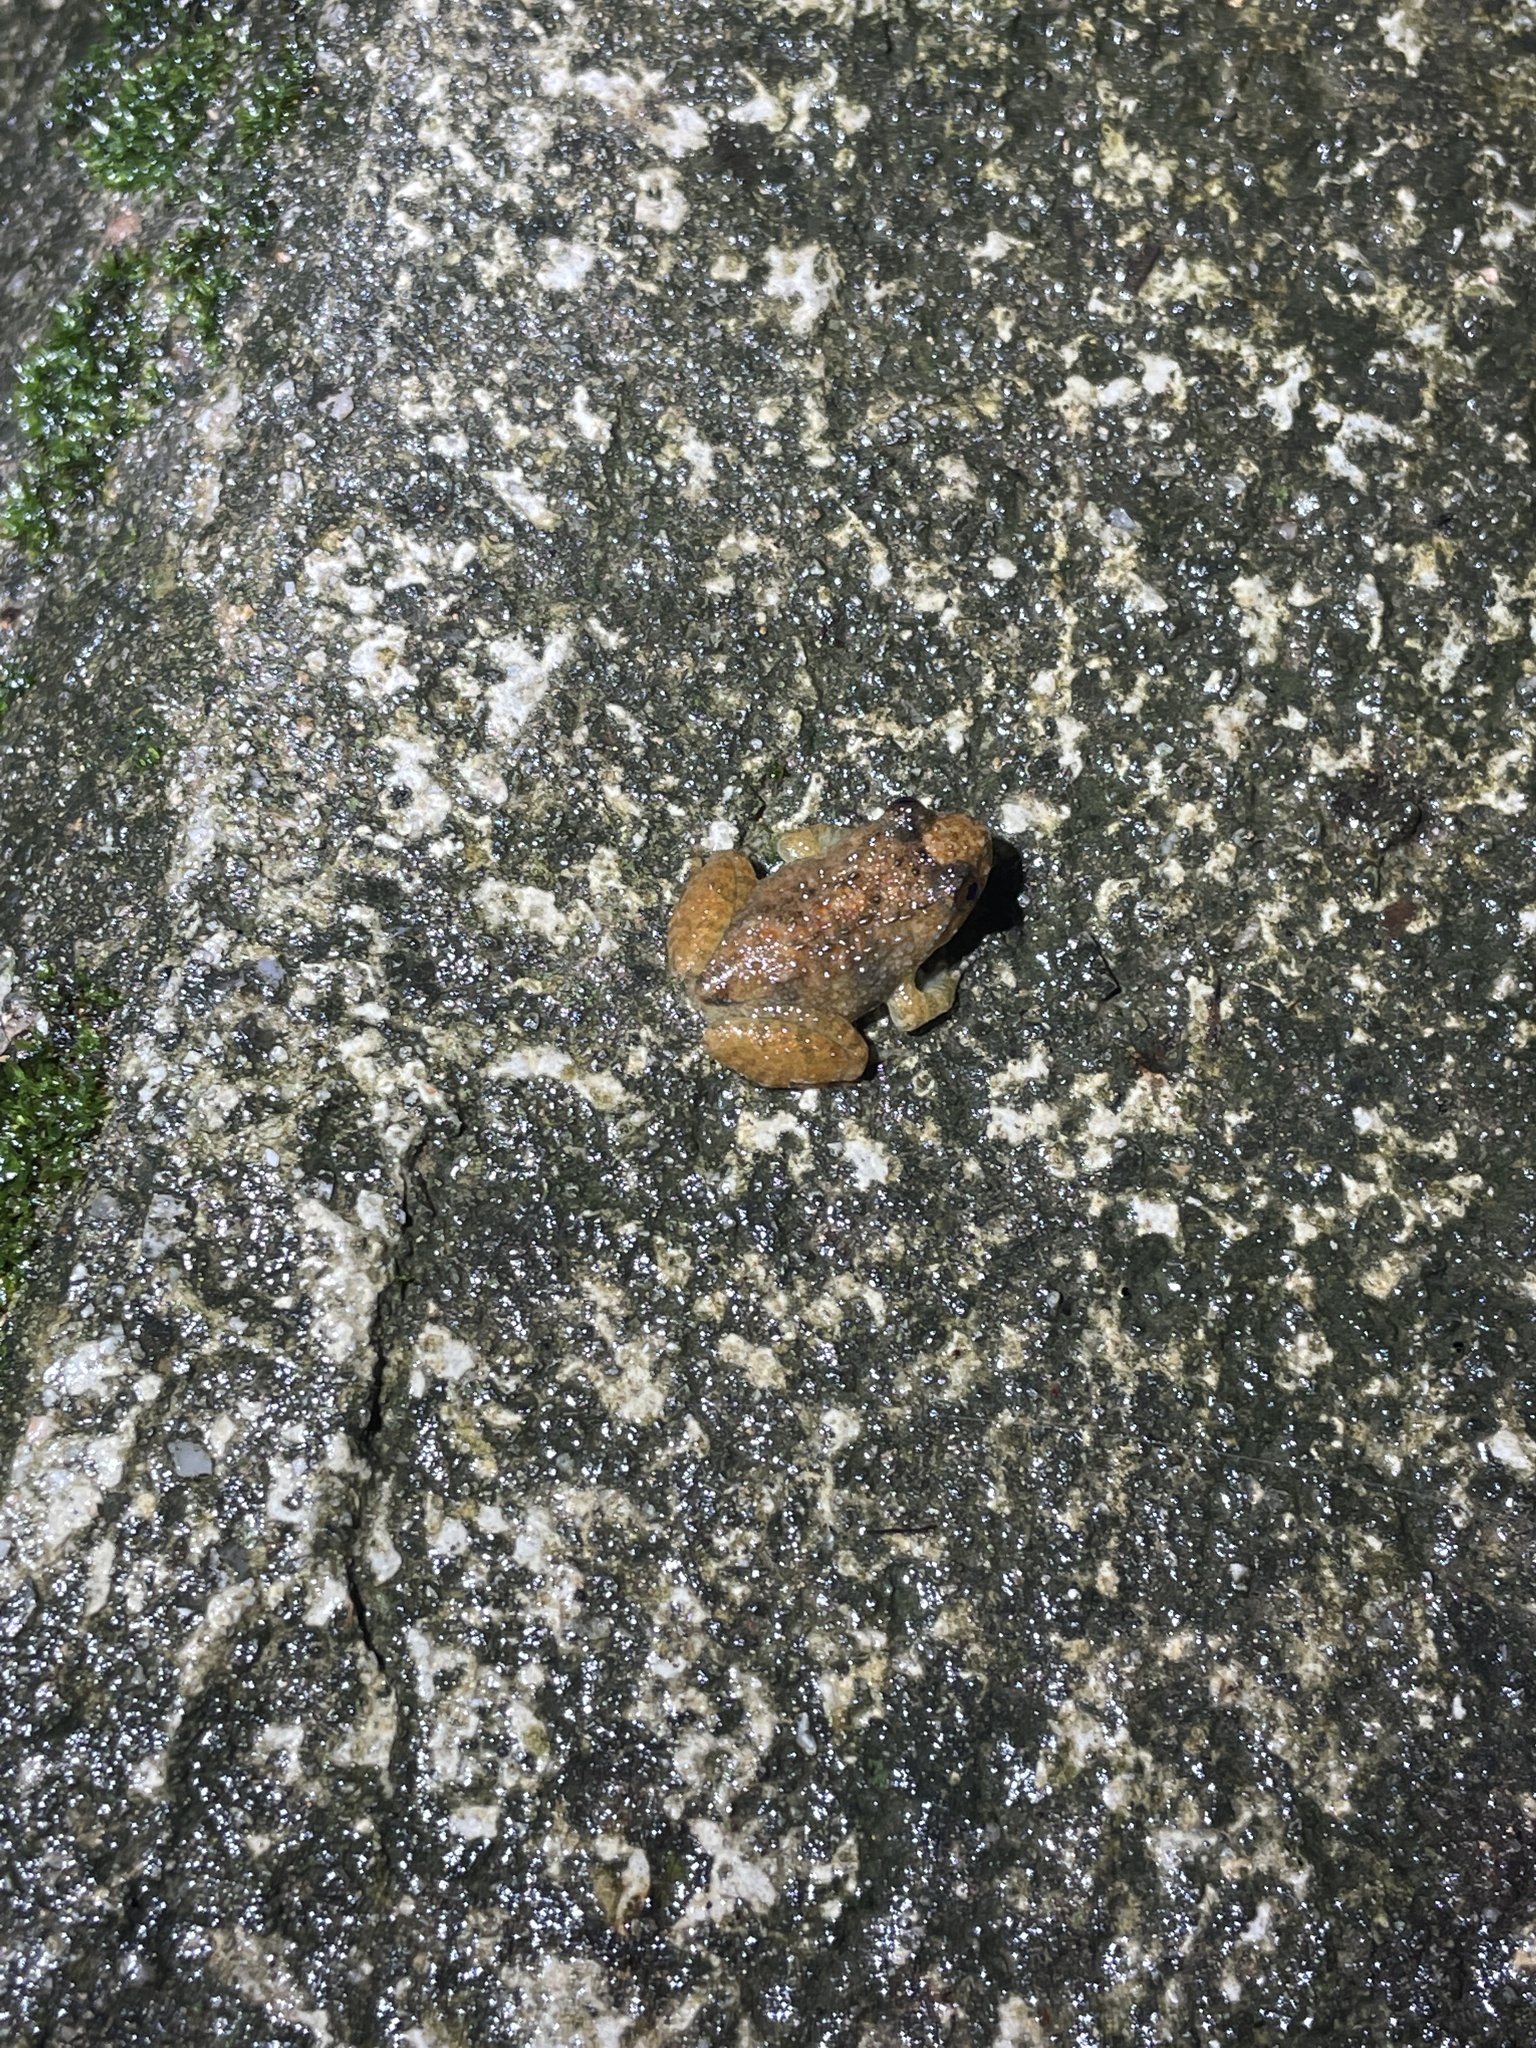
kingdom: Animalia
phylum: Chordata
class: Amphibia
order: Anura
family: Dicroglossidae
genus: Quasipaa
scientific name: Quasipaa exilispinosa
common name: Hong kong paa frog
